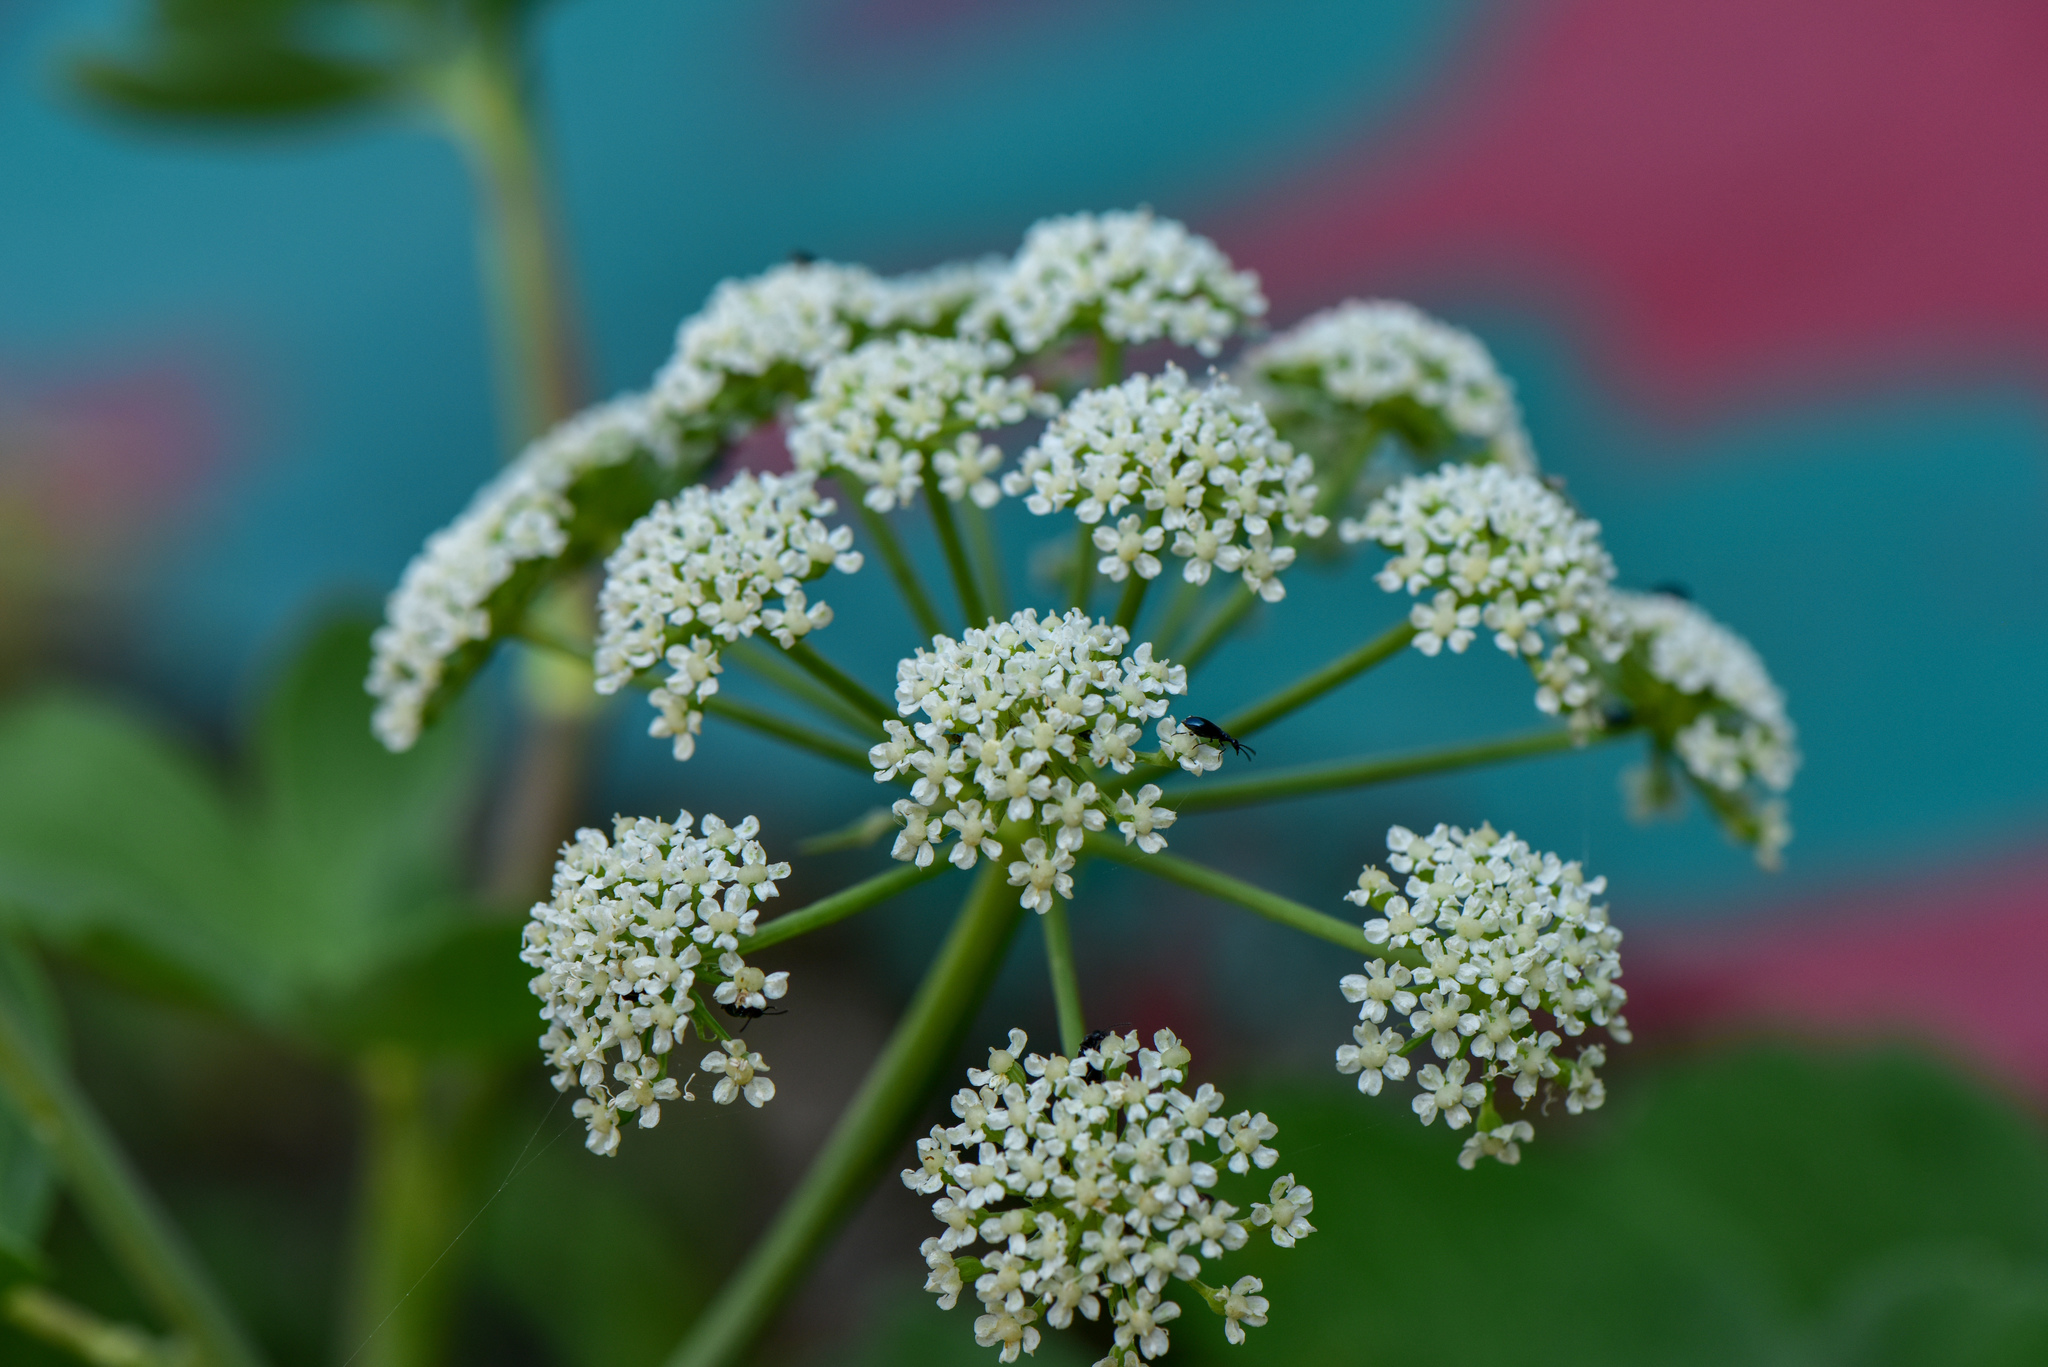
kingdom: Plantae
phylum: Tracheophyta
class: Magnoliopsida
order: Apiales
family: Apiaceae
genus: Peucedanum
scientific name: Peucedanum japonicum
